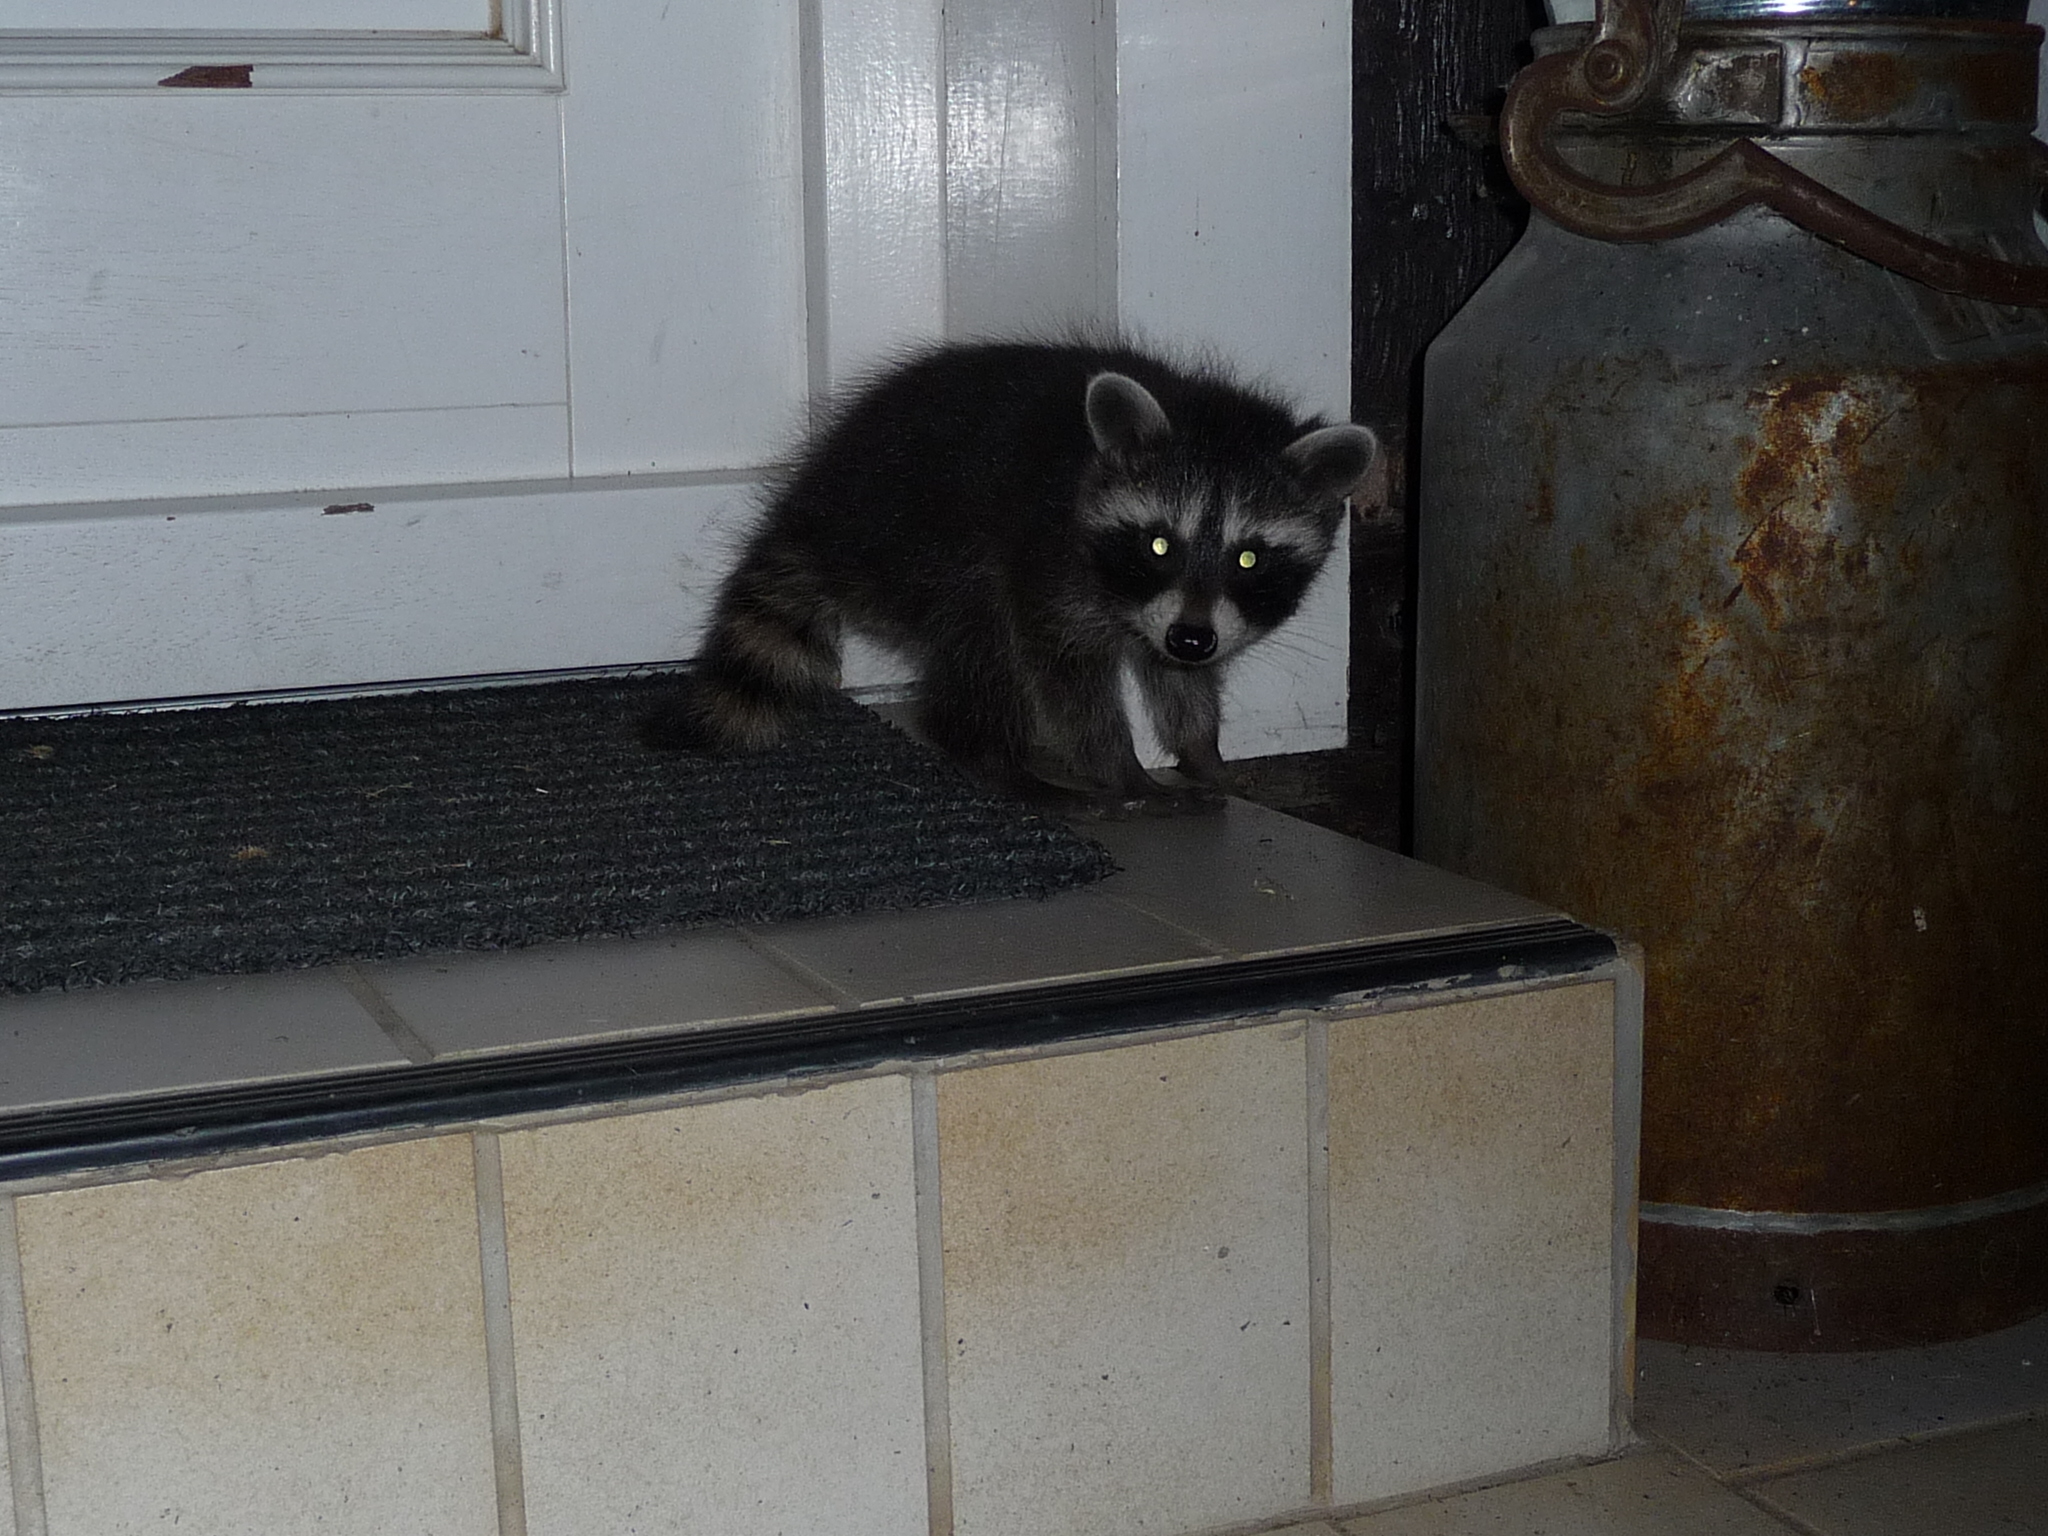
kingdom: Animalia
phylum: Chordata
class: Mammalia
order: Carnivora
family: Procyonidae
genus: Procyon
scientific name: Procyon lotor
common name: Raccoon
